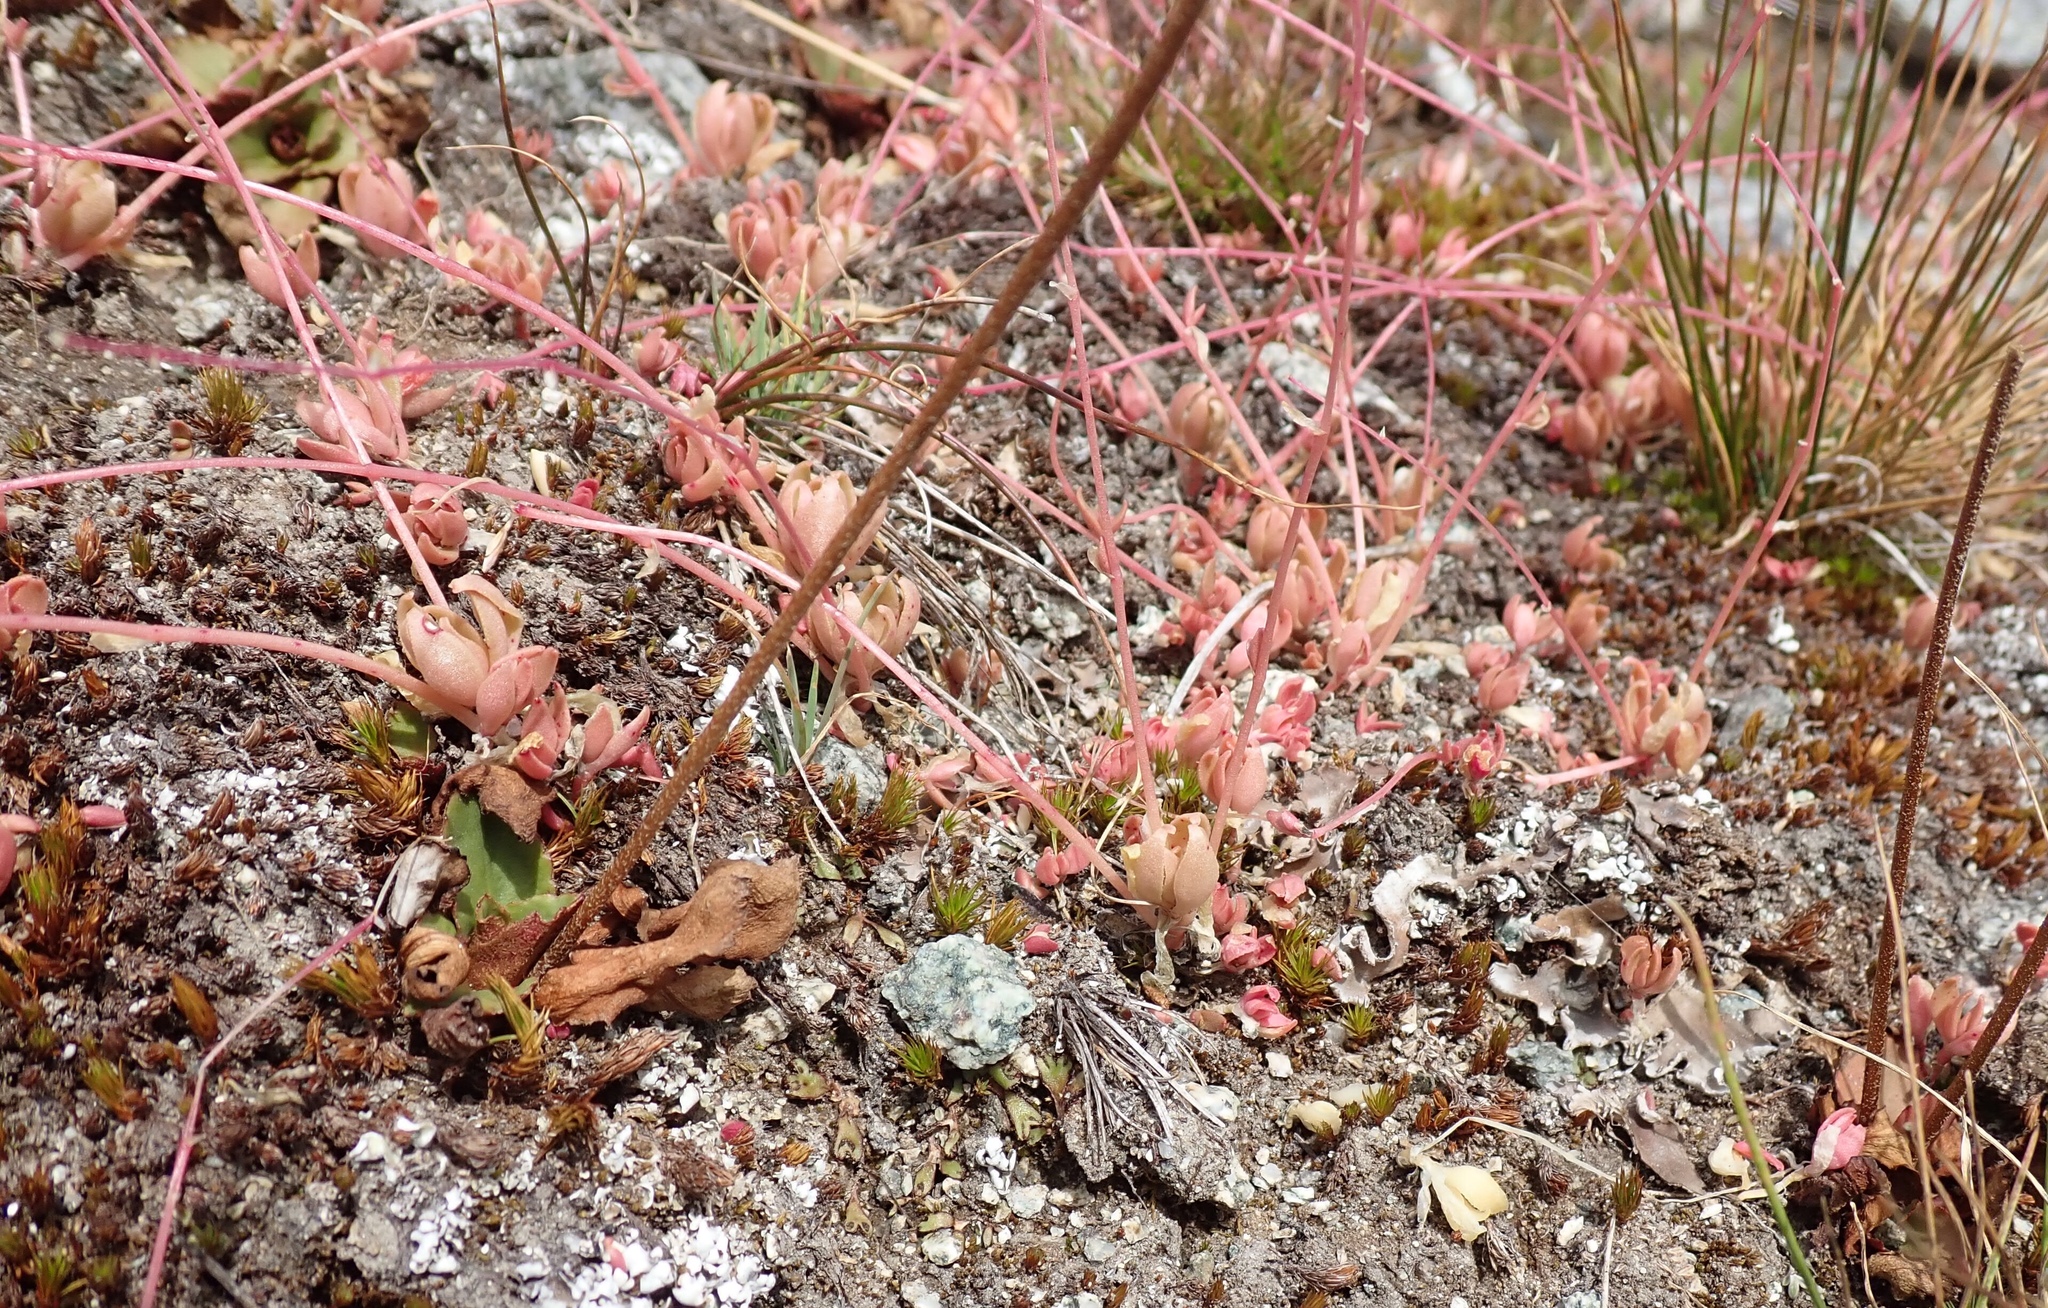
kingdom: Plantae
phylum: Tracheophyta
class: Magnoliopsida
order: Caryophyllales
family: Montiaceae
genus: Montia
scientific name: Montia parvifolia
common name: Small-leaved blinks
